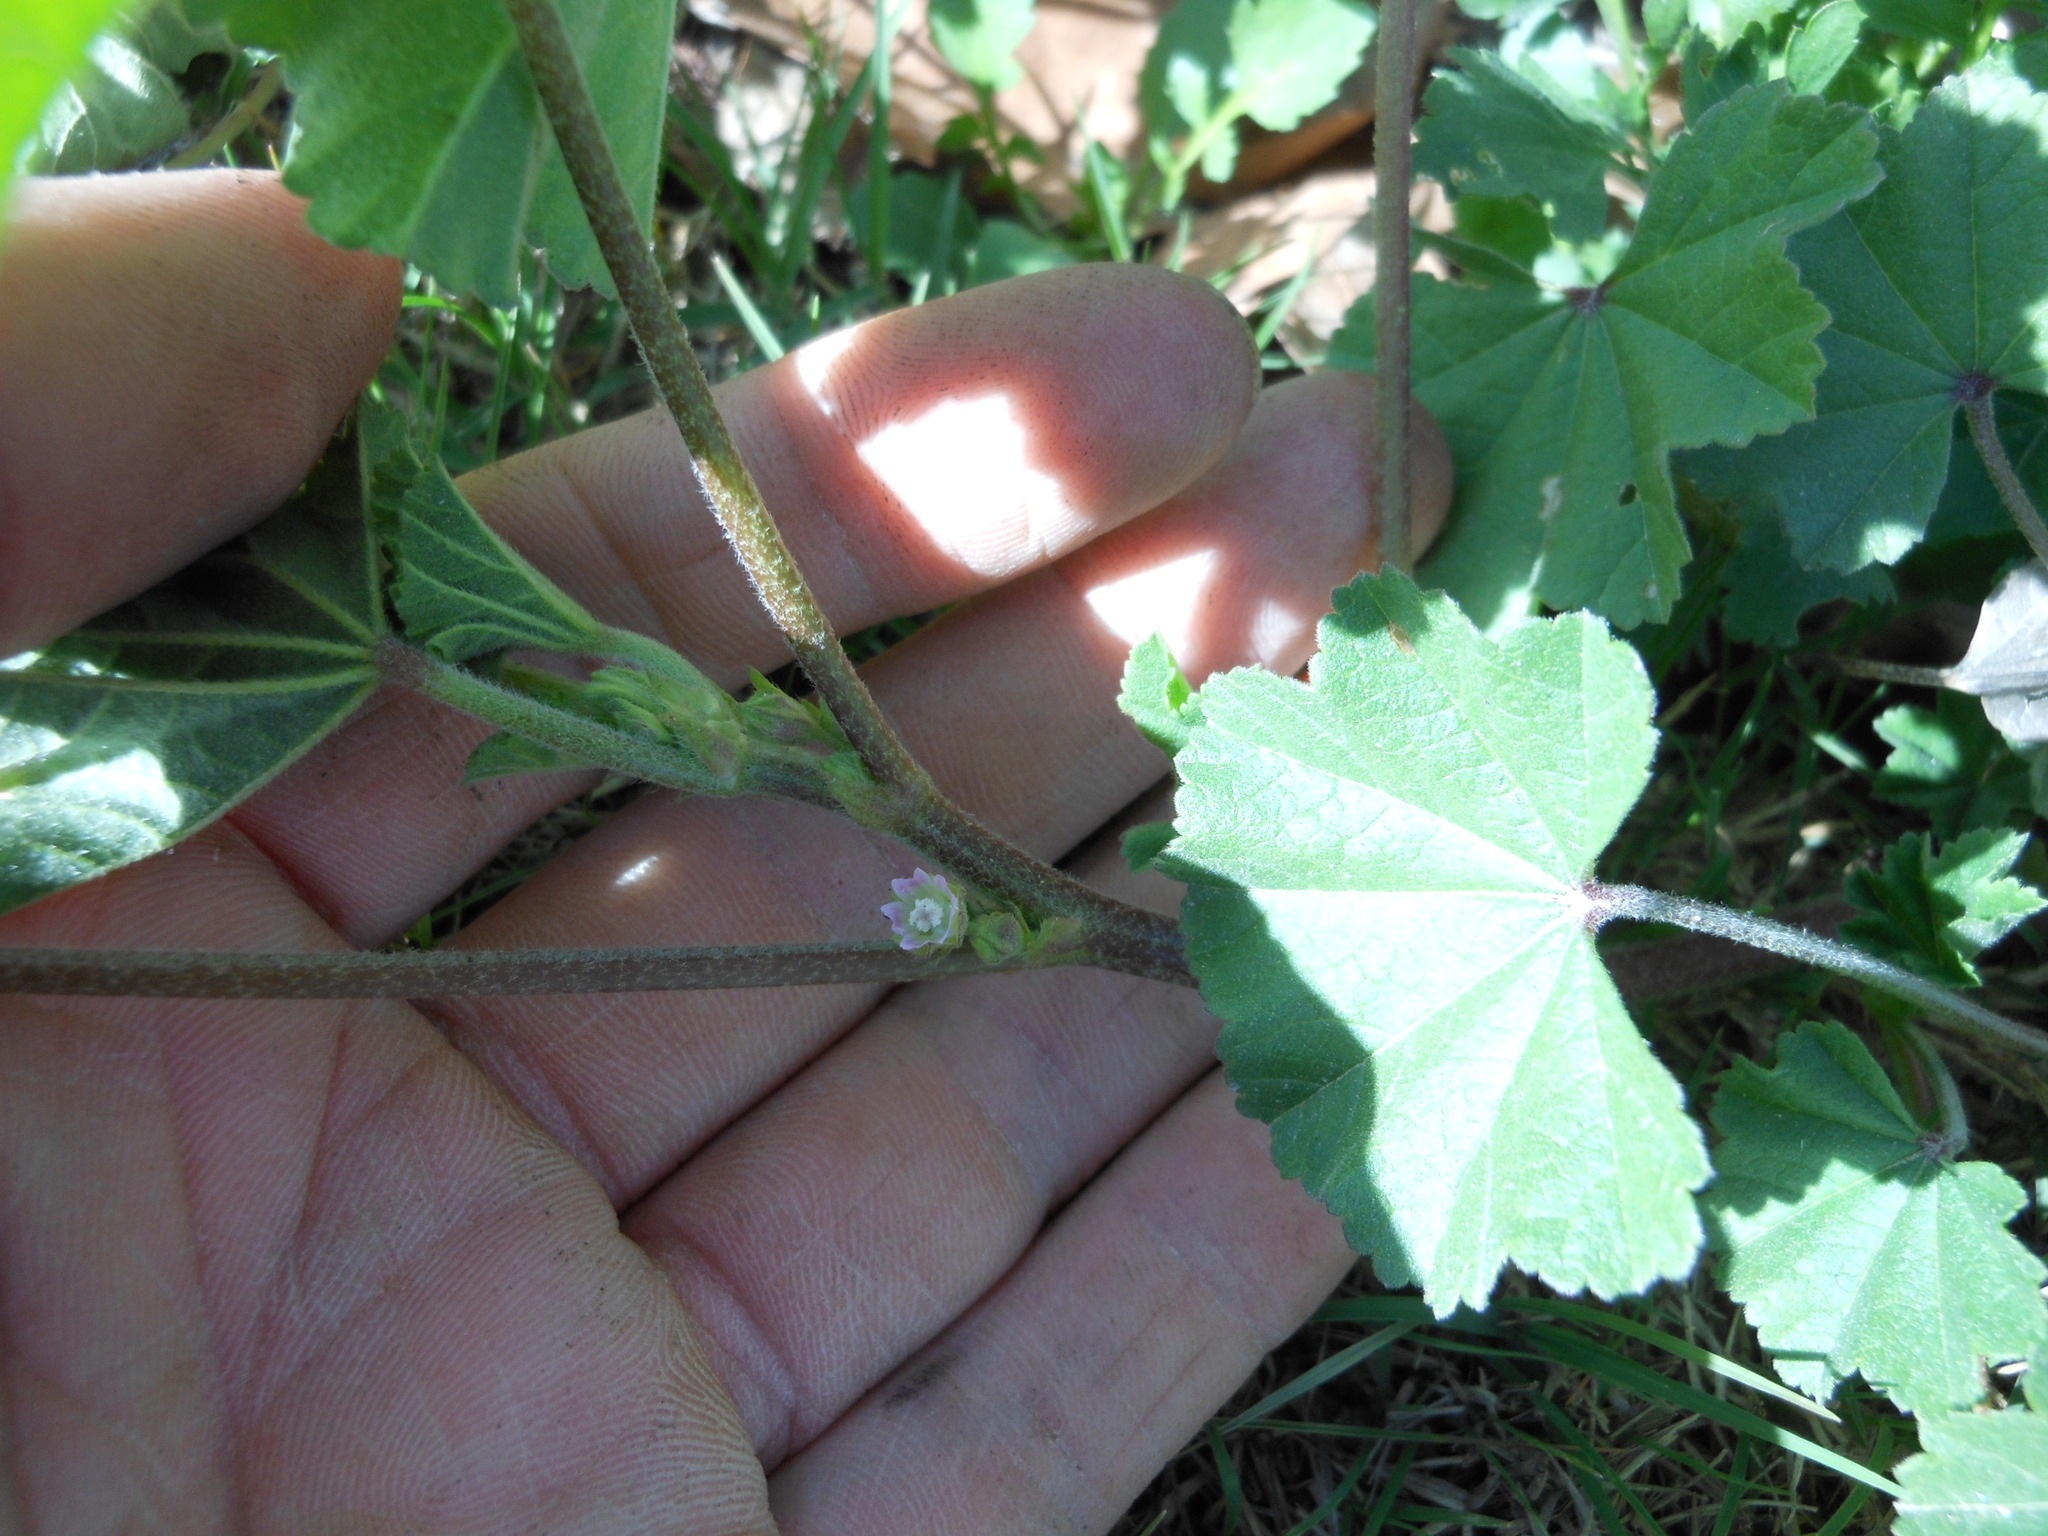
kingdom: Plantae
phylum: Tracheophyta
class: Magnoliopsida
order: Malvales
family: Malvaceae
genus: Malva
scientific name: Malva parviflora
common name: Least mallow
